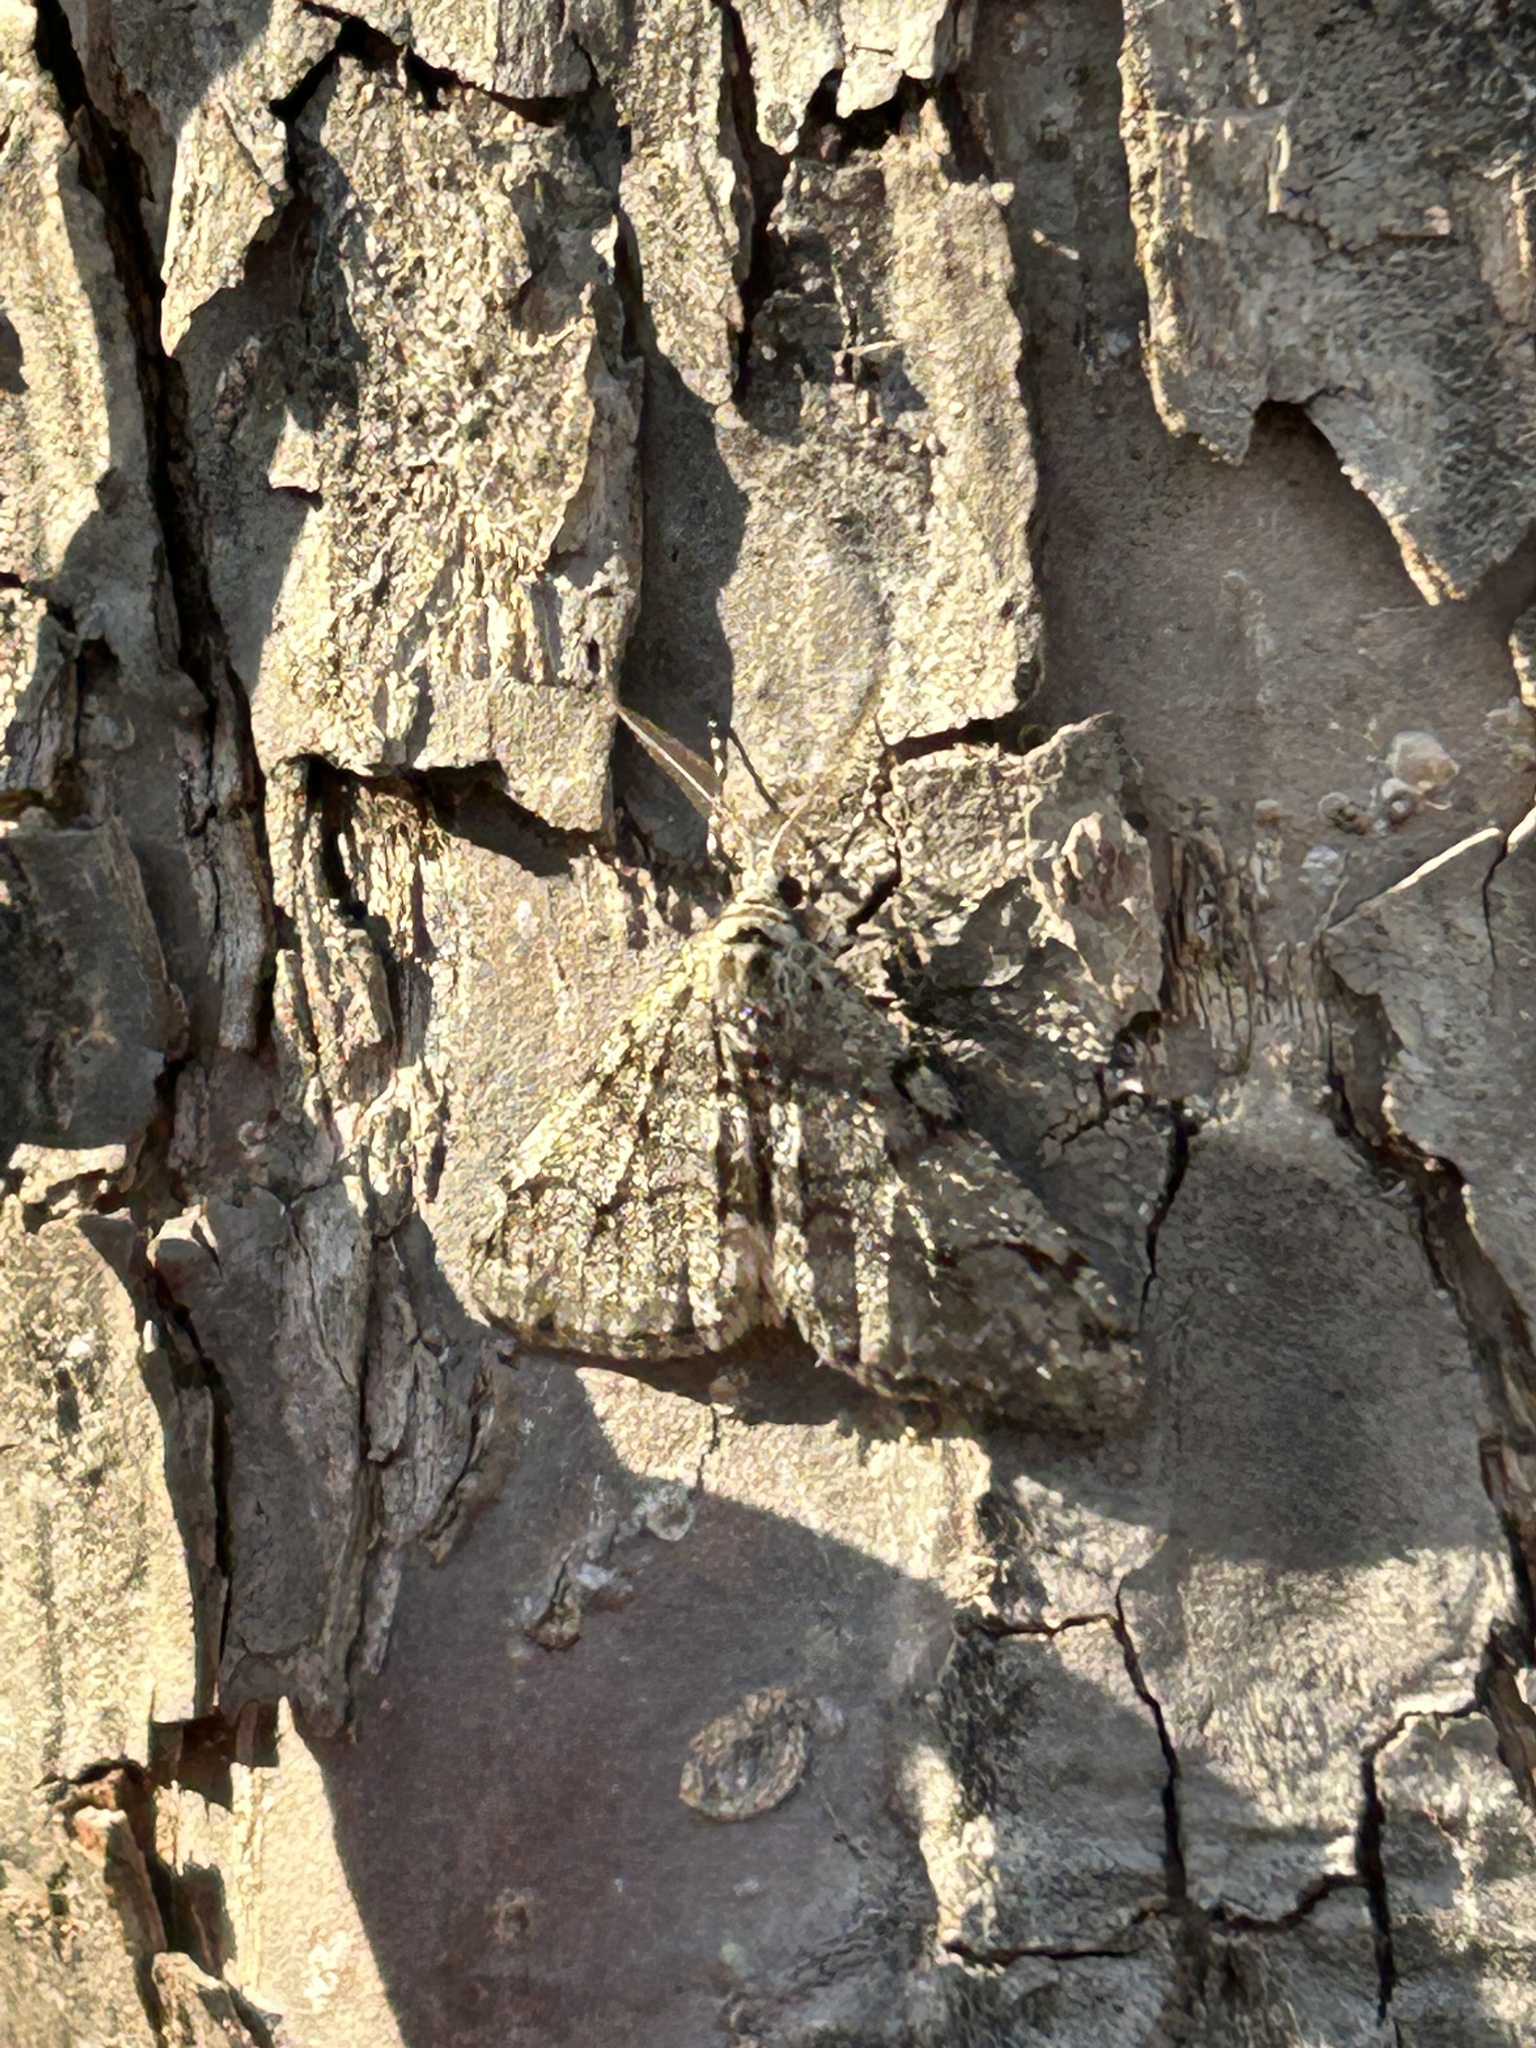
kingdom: Animalia
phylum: Arthropoda
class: Insecta
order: Lepidoptera
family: Geometridae
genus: Phigalia
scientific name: Phigalia strigataria
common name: Small phigalia
